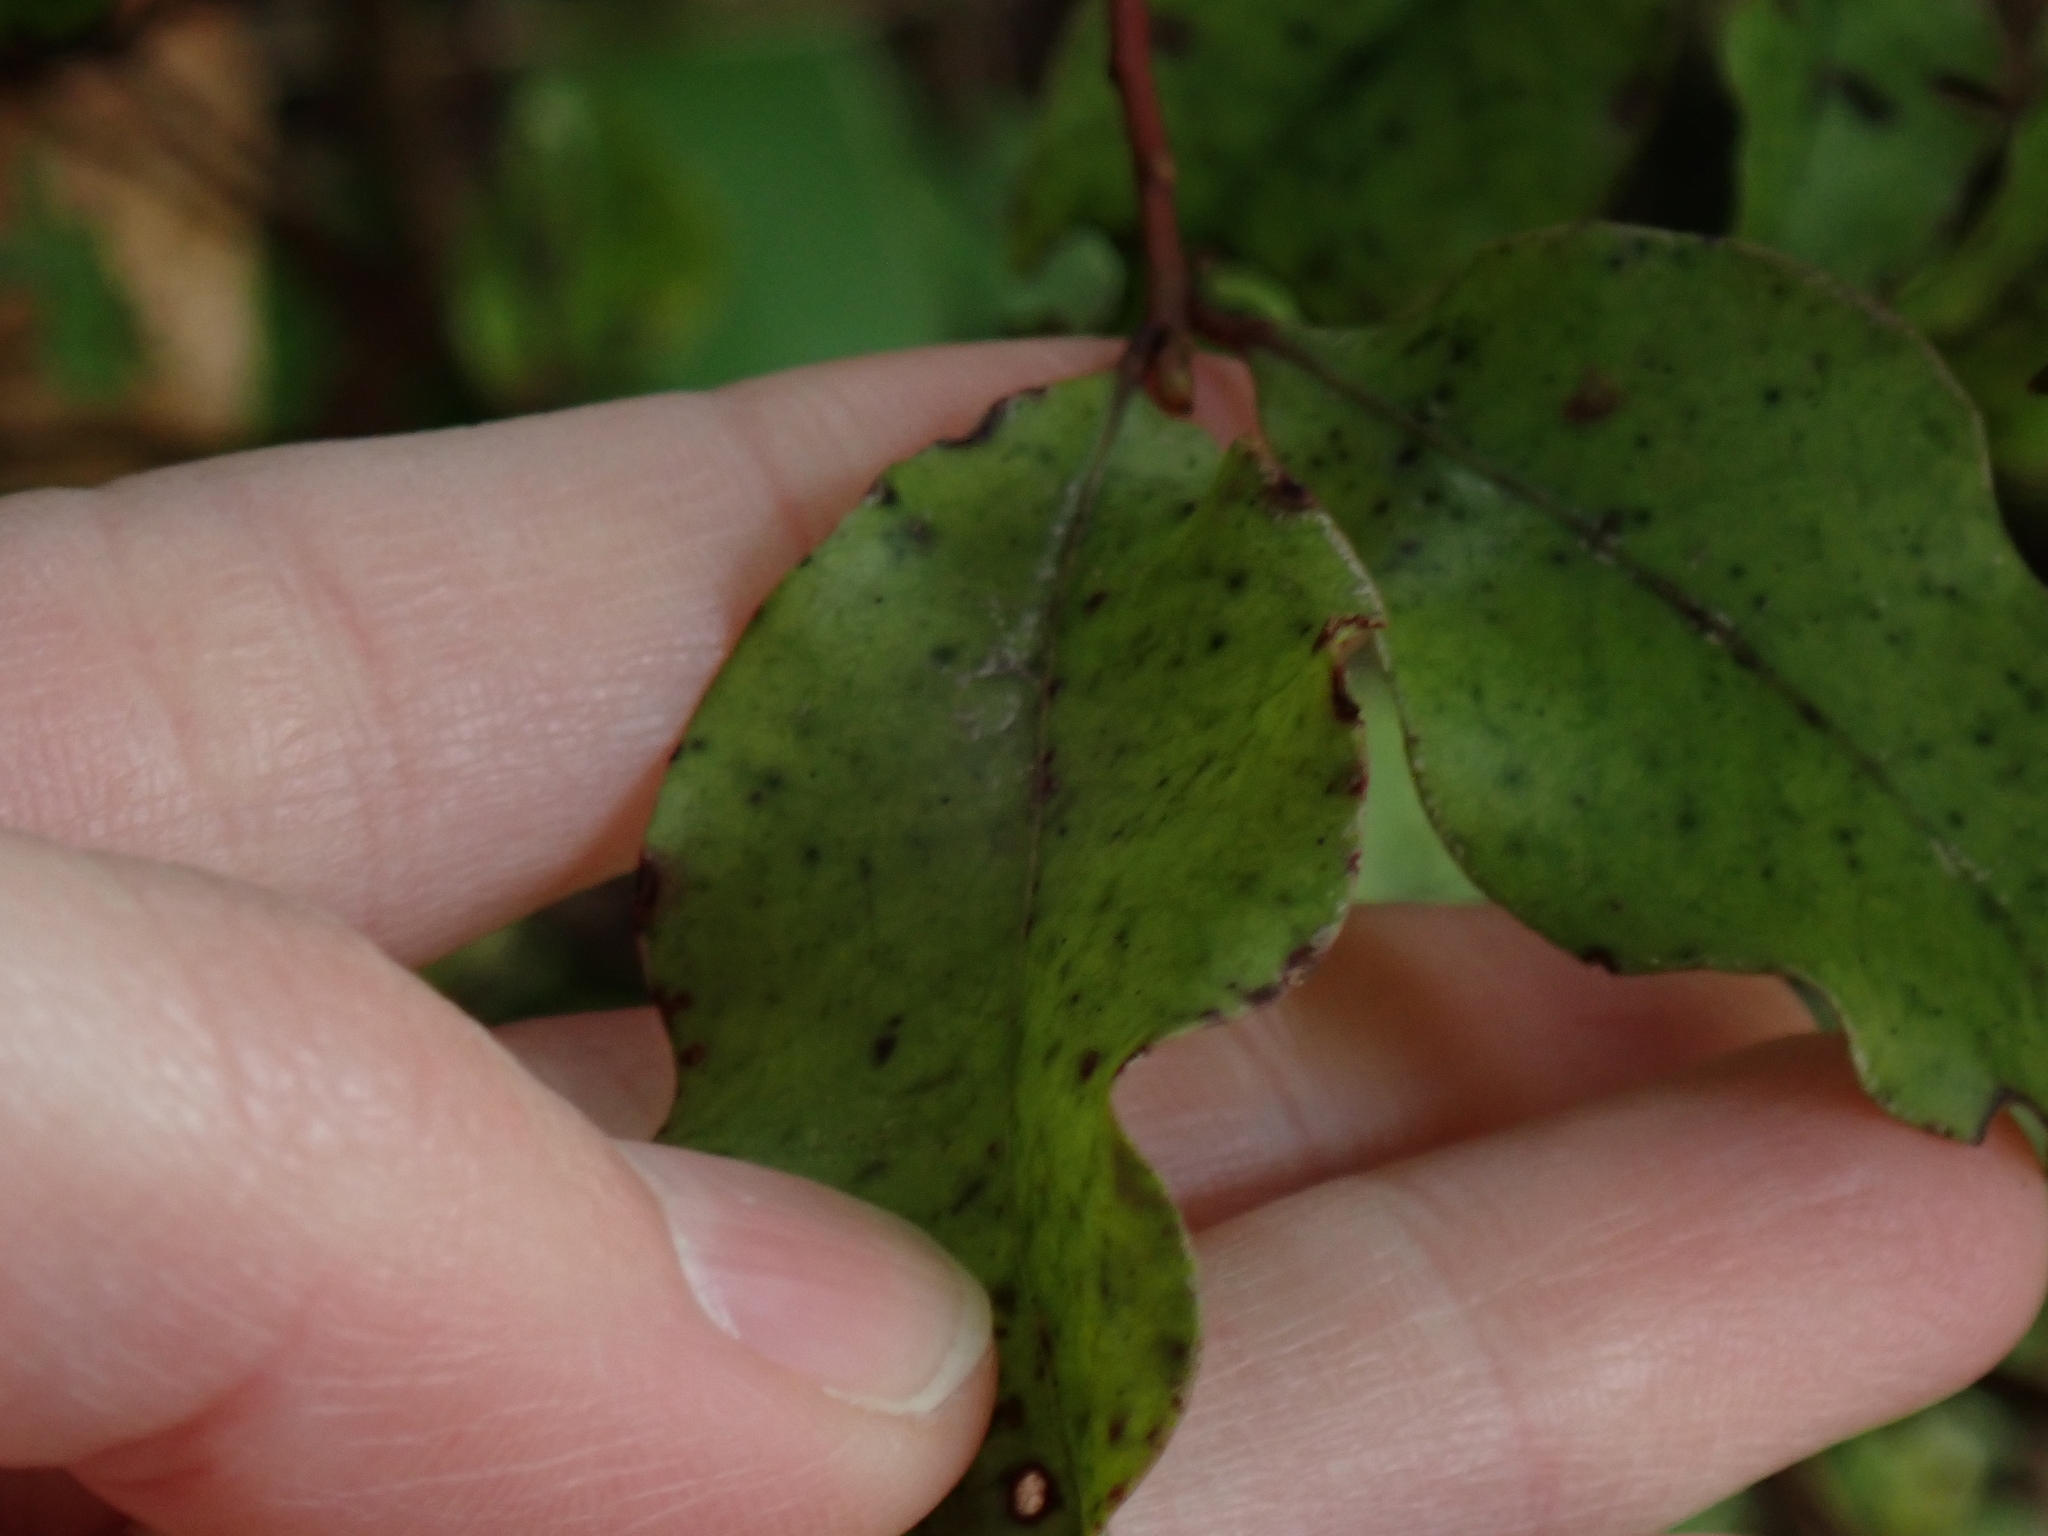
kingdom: Plantae
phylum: Tracheophyta
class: Magnoliopsida
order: Ericales
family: Primulaceae
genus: Myrsine
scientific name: Myrsine australis
